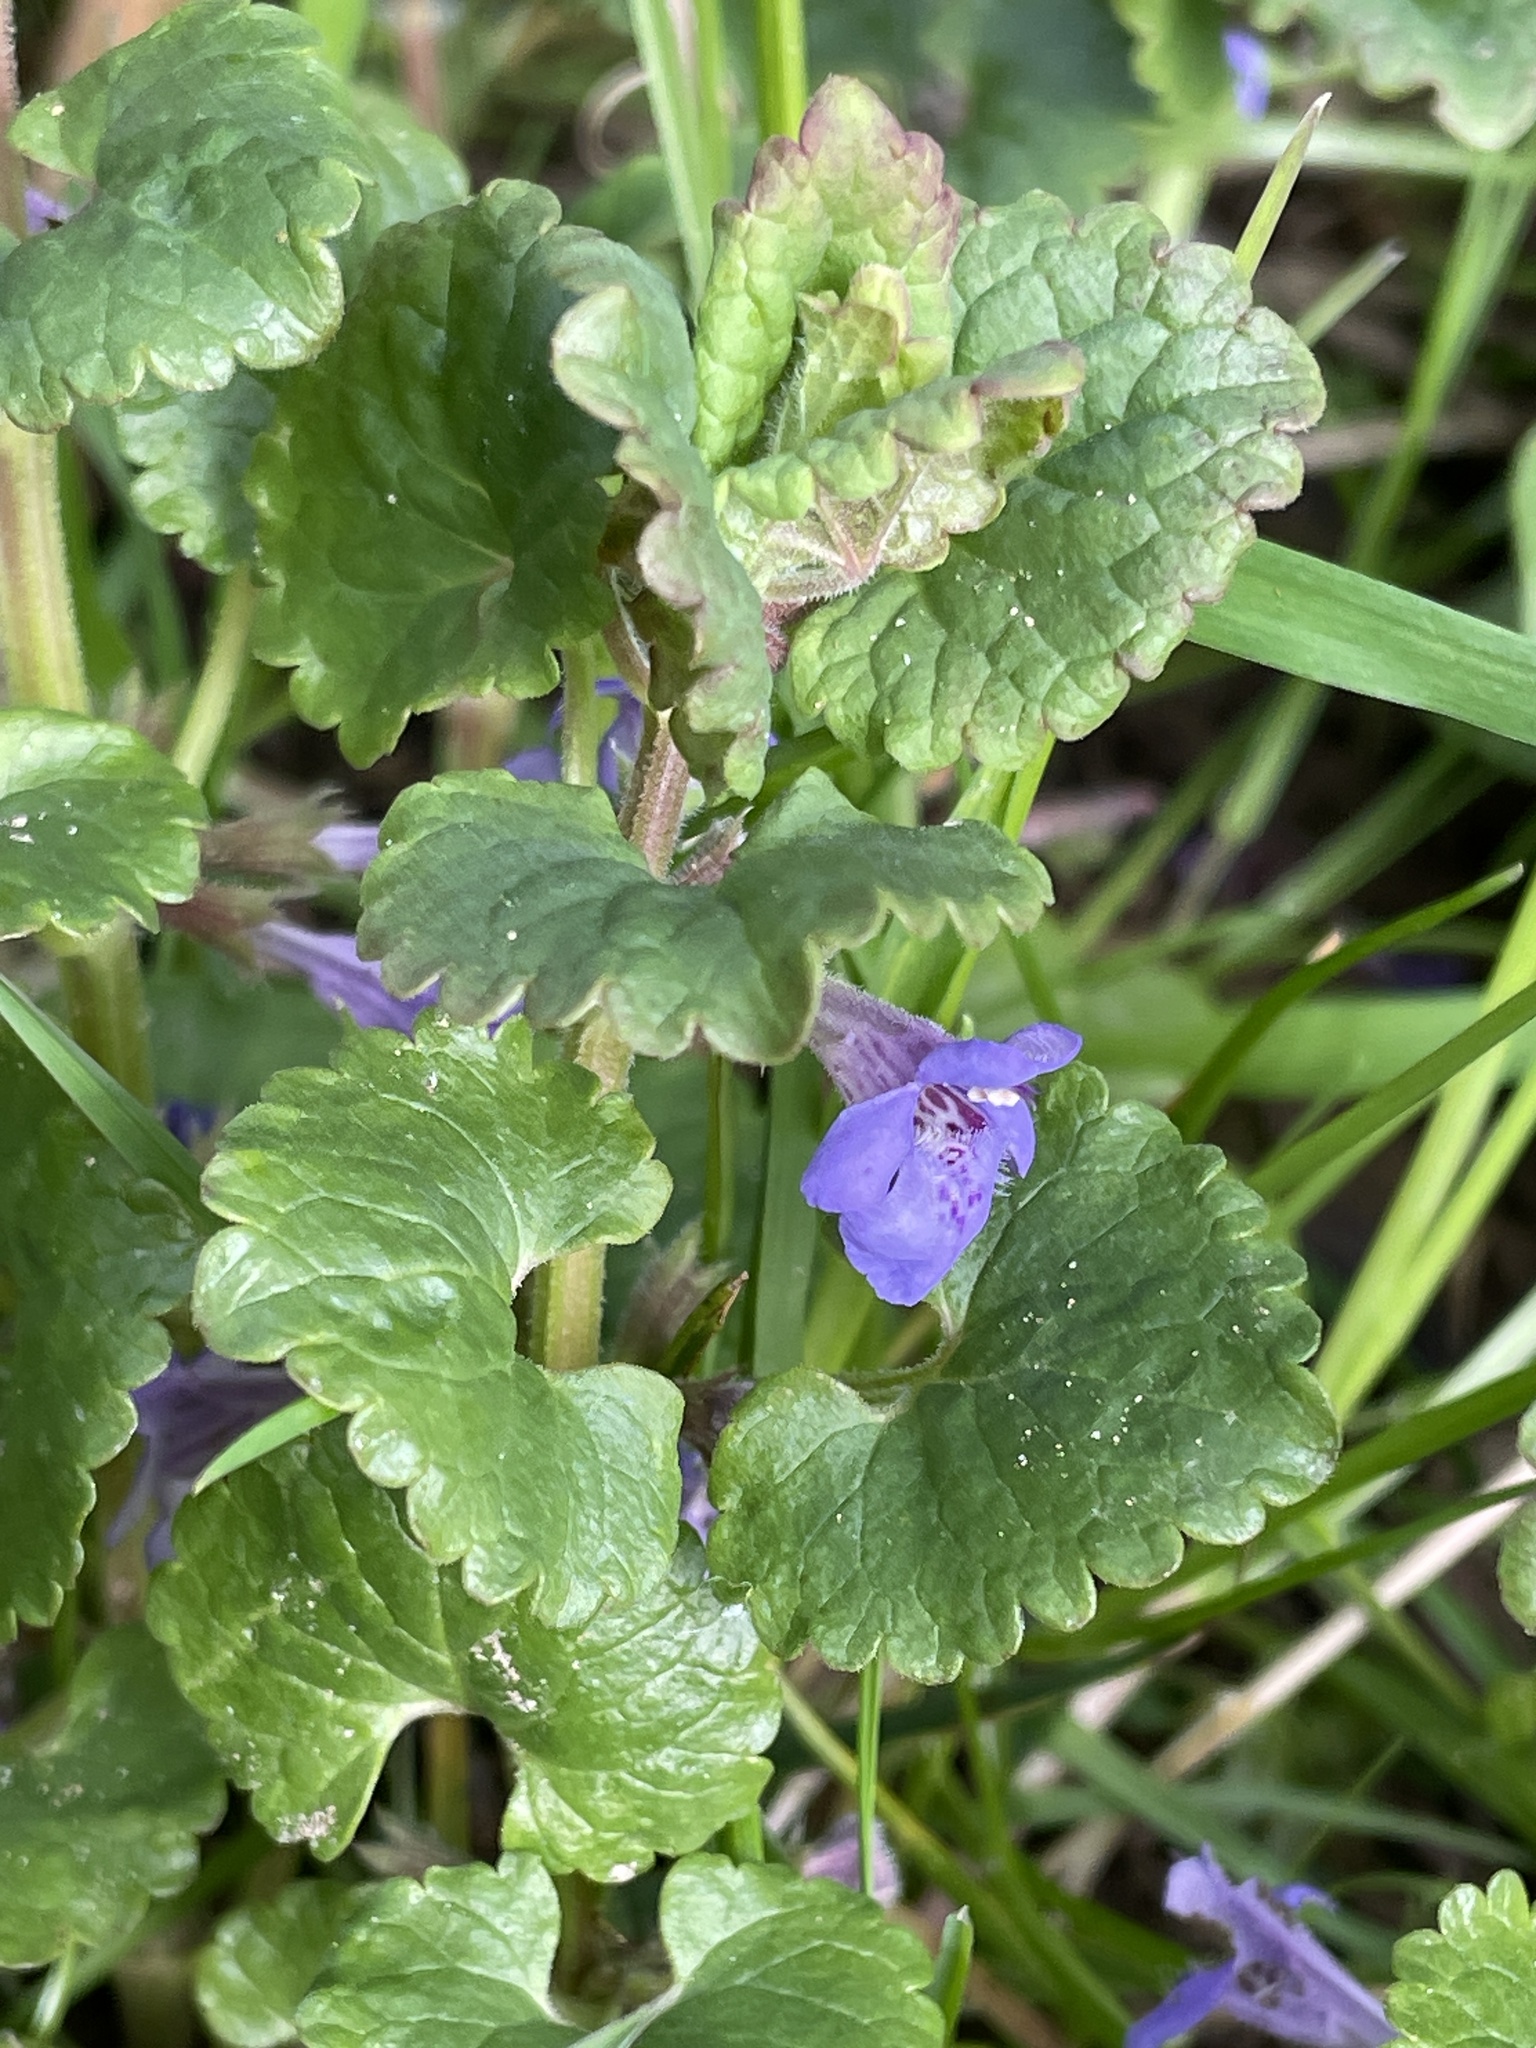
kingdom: Plantae
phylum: Tracheophyta
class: Magnoliopsida
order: Lamiales
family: Lamiaceae
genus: Glechoma
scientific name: Glechoma hederacea
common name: Ground ivy
